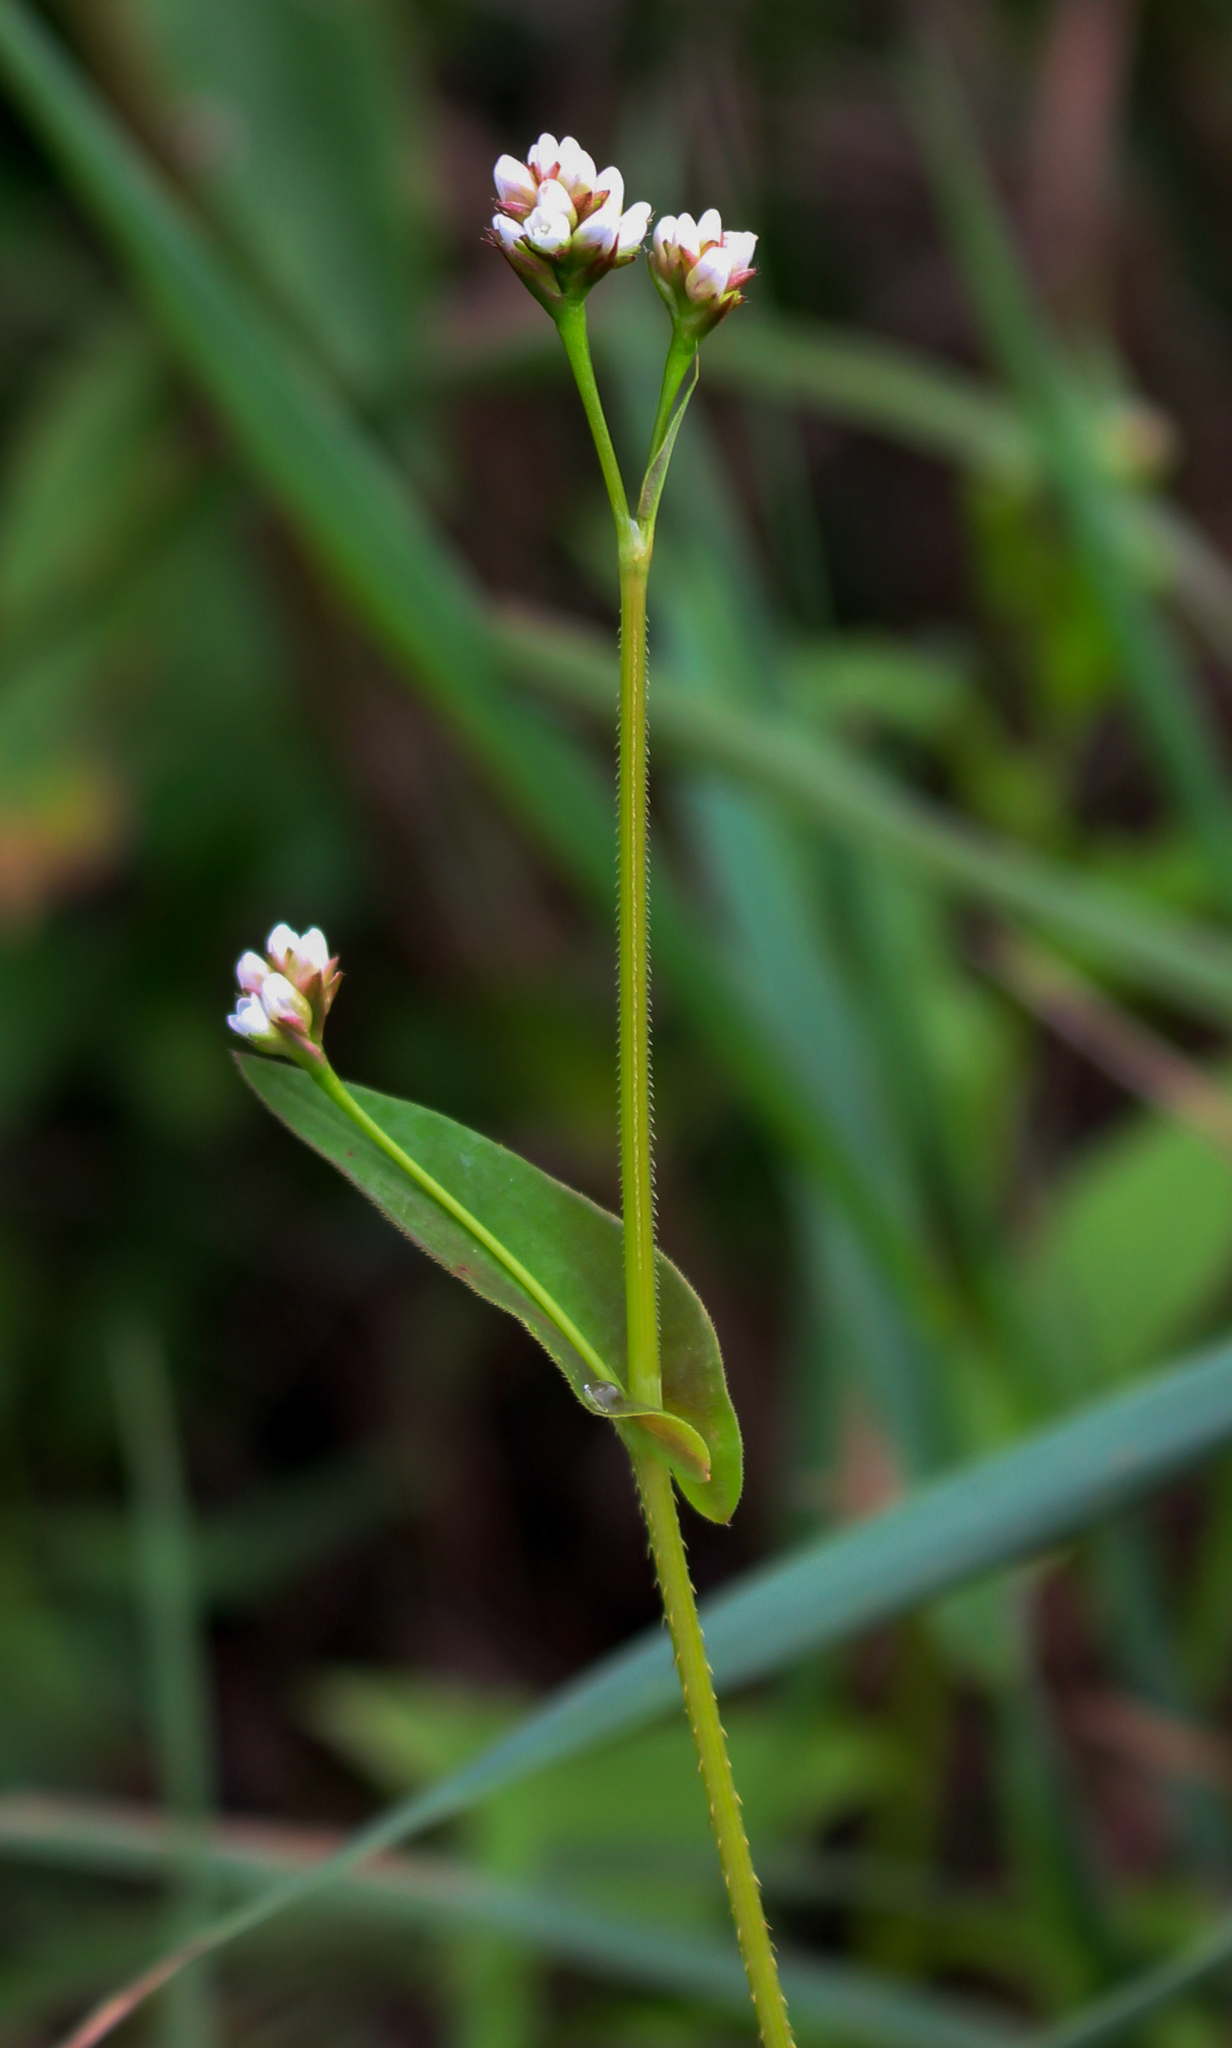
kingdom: Plantae
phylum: Tracheophyta
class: Magnoliopsida
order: Caryophyllales
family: Polygonaceae
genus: Persicaria
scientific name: Persicaria sagittata
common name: American tearthumb
